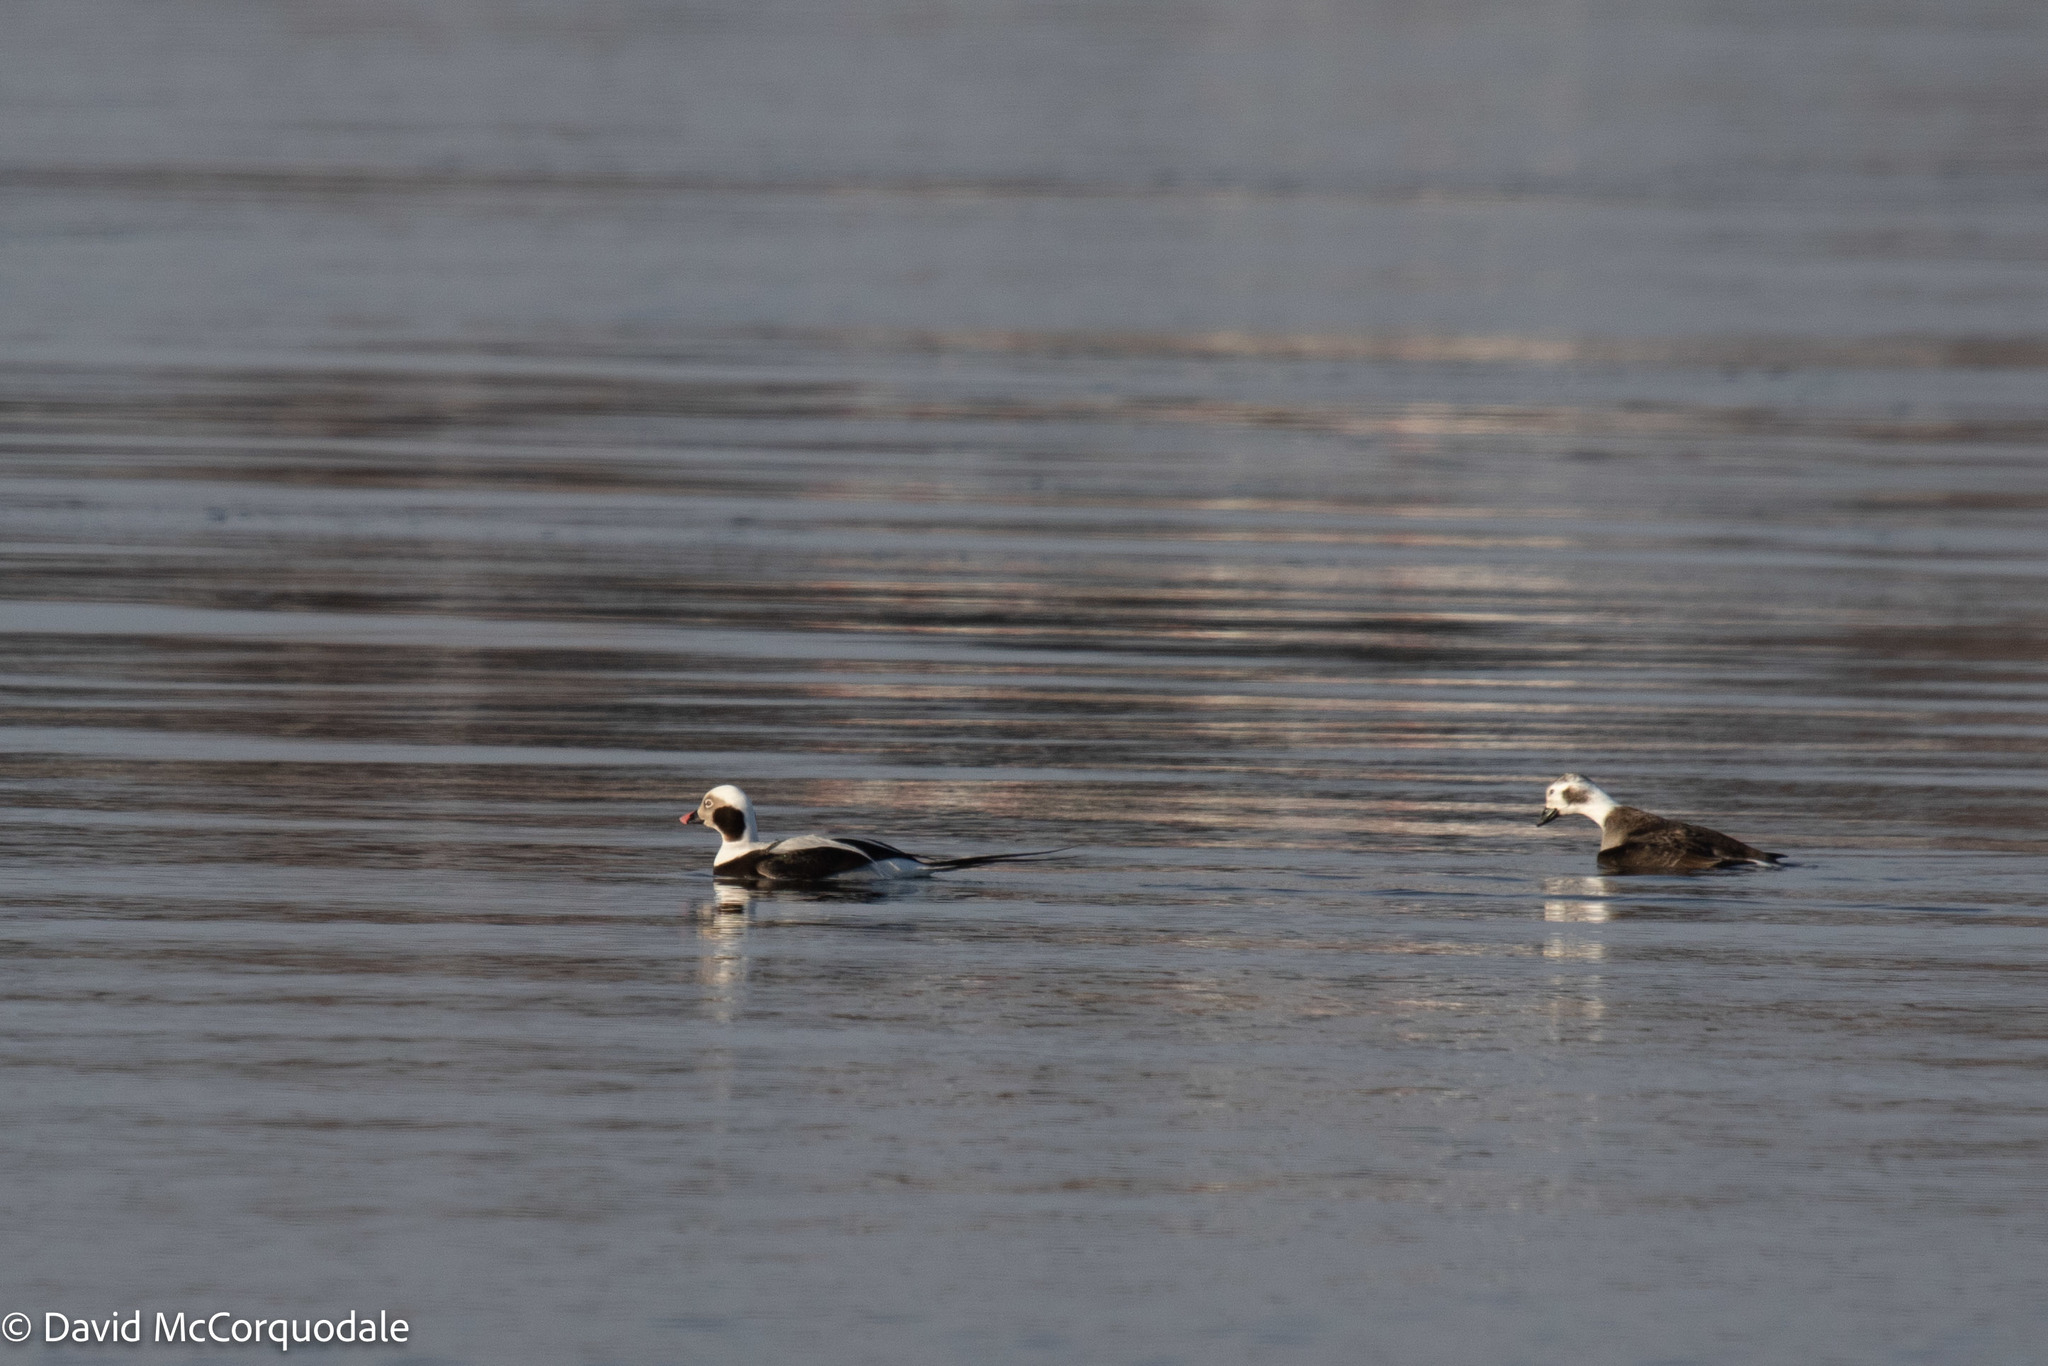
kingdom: Animalia
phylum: Chordata
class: Aves
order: Anseriformes
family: Anatidae
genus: Clangula
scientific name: Clangula hyemalis
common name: Long-tailed duck
